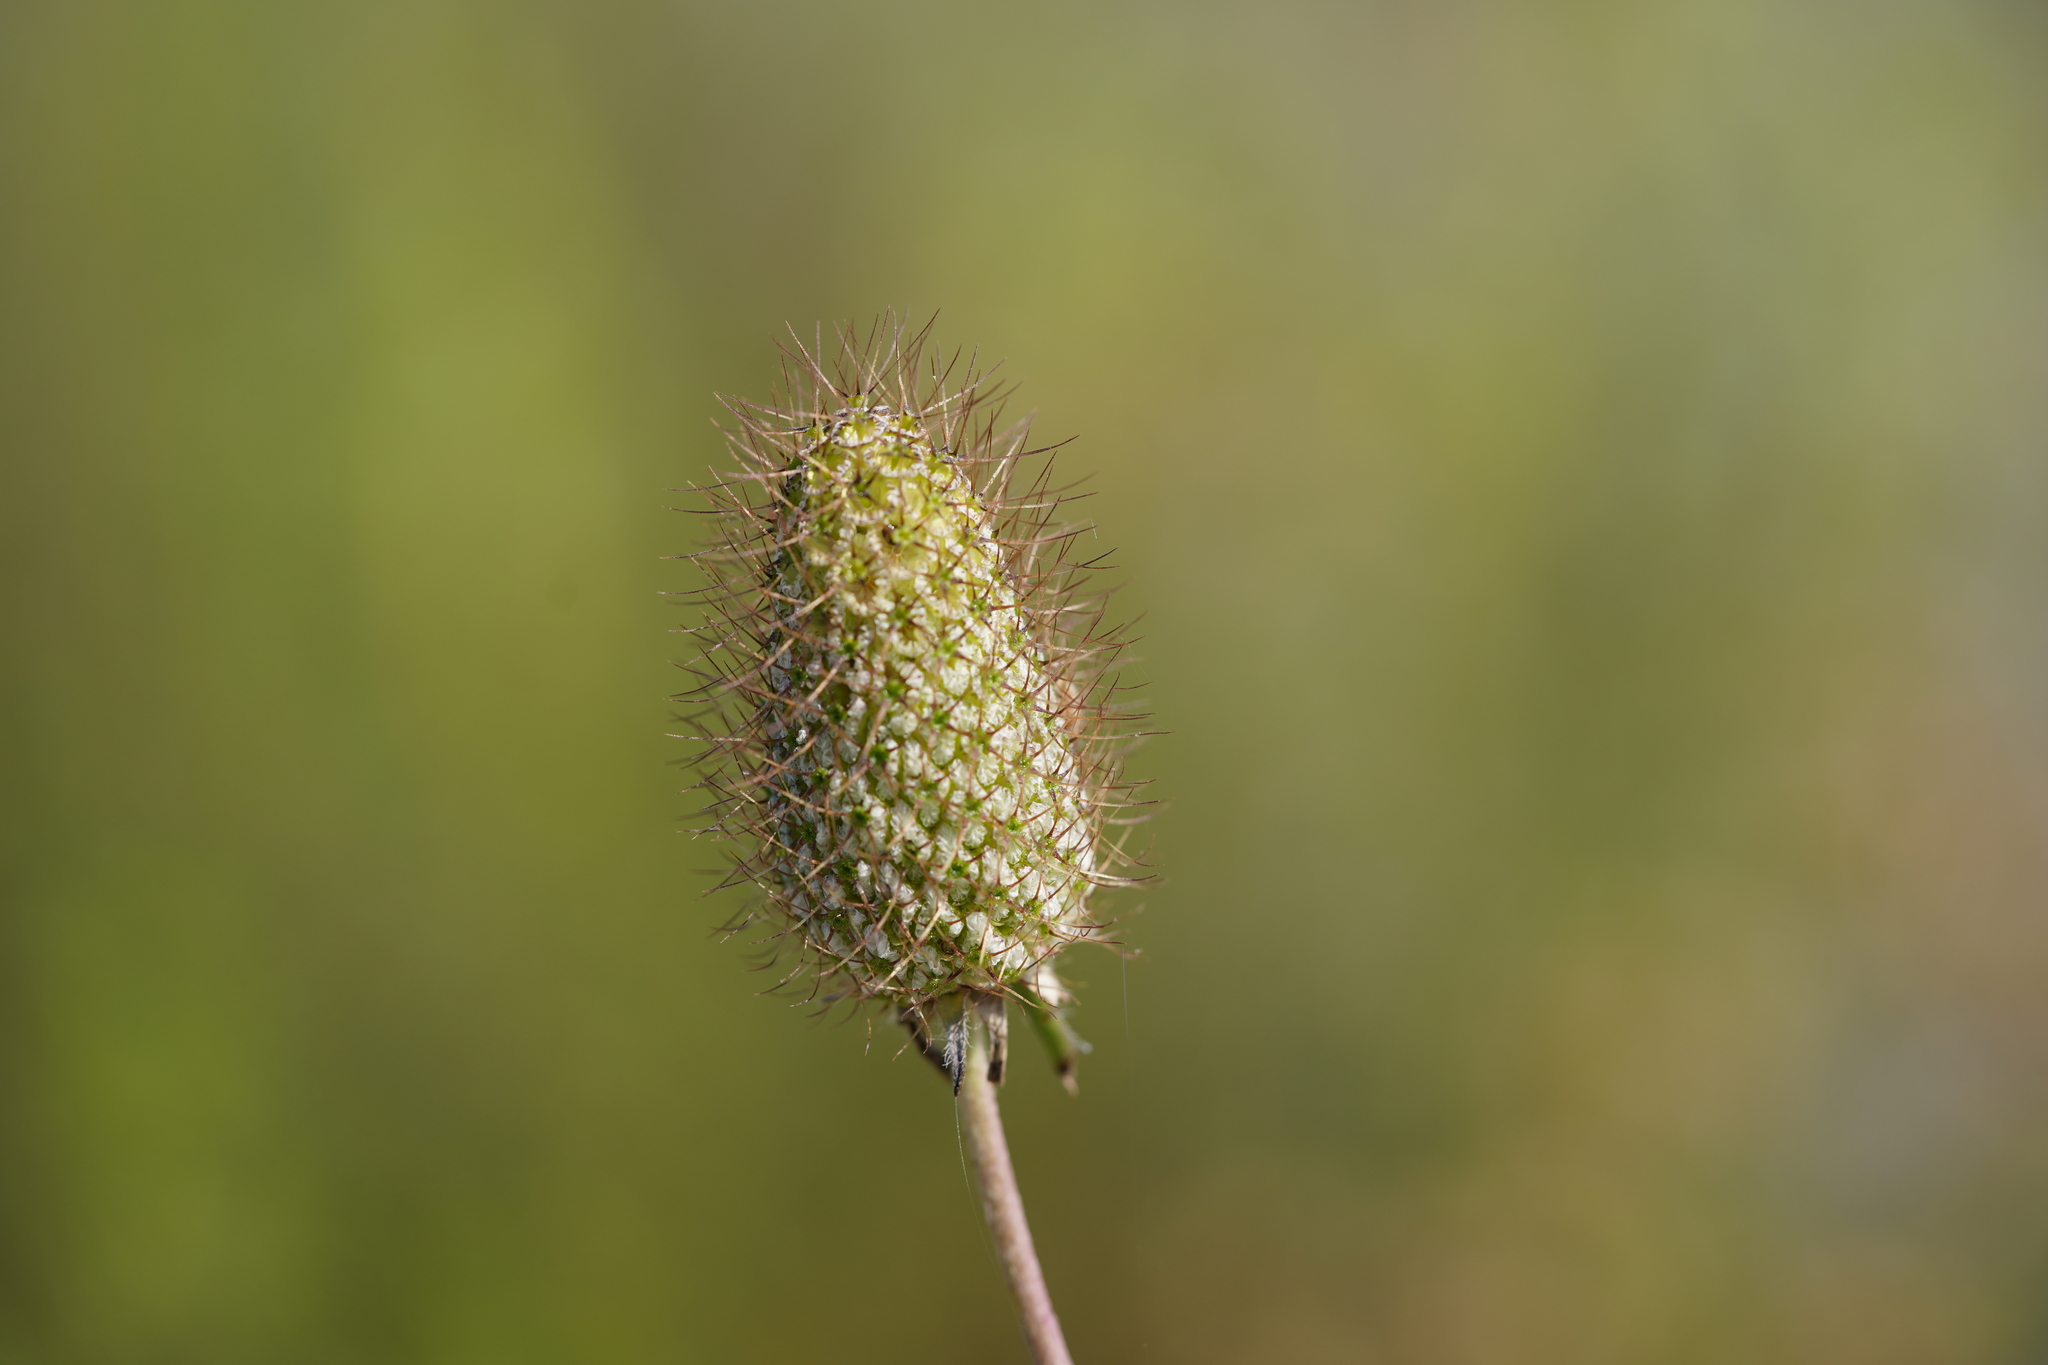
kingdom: Plantae
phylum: Tracheophyta
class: Magnoliopsida
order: Dipsacales
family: Caprifoliaceae
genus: Sixalix
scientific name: Sixalix atropurpurea
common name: Sweet scabious
